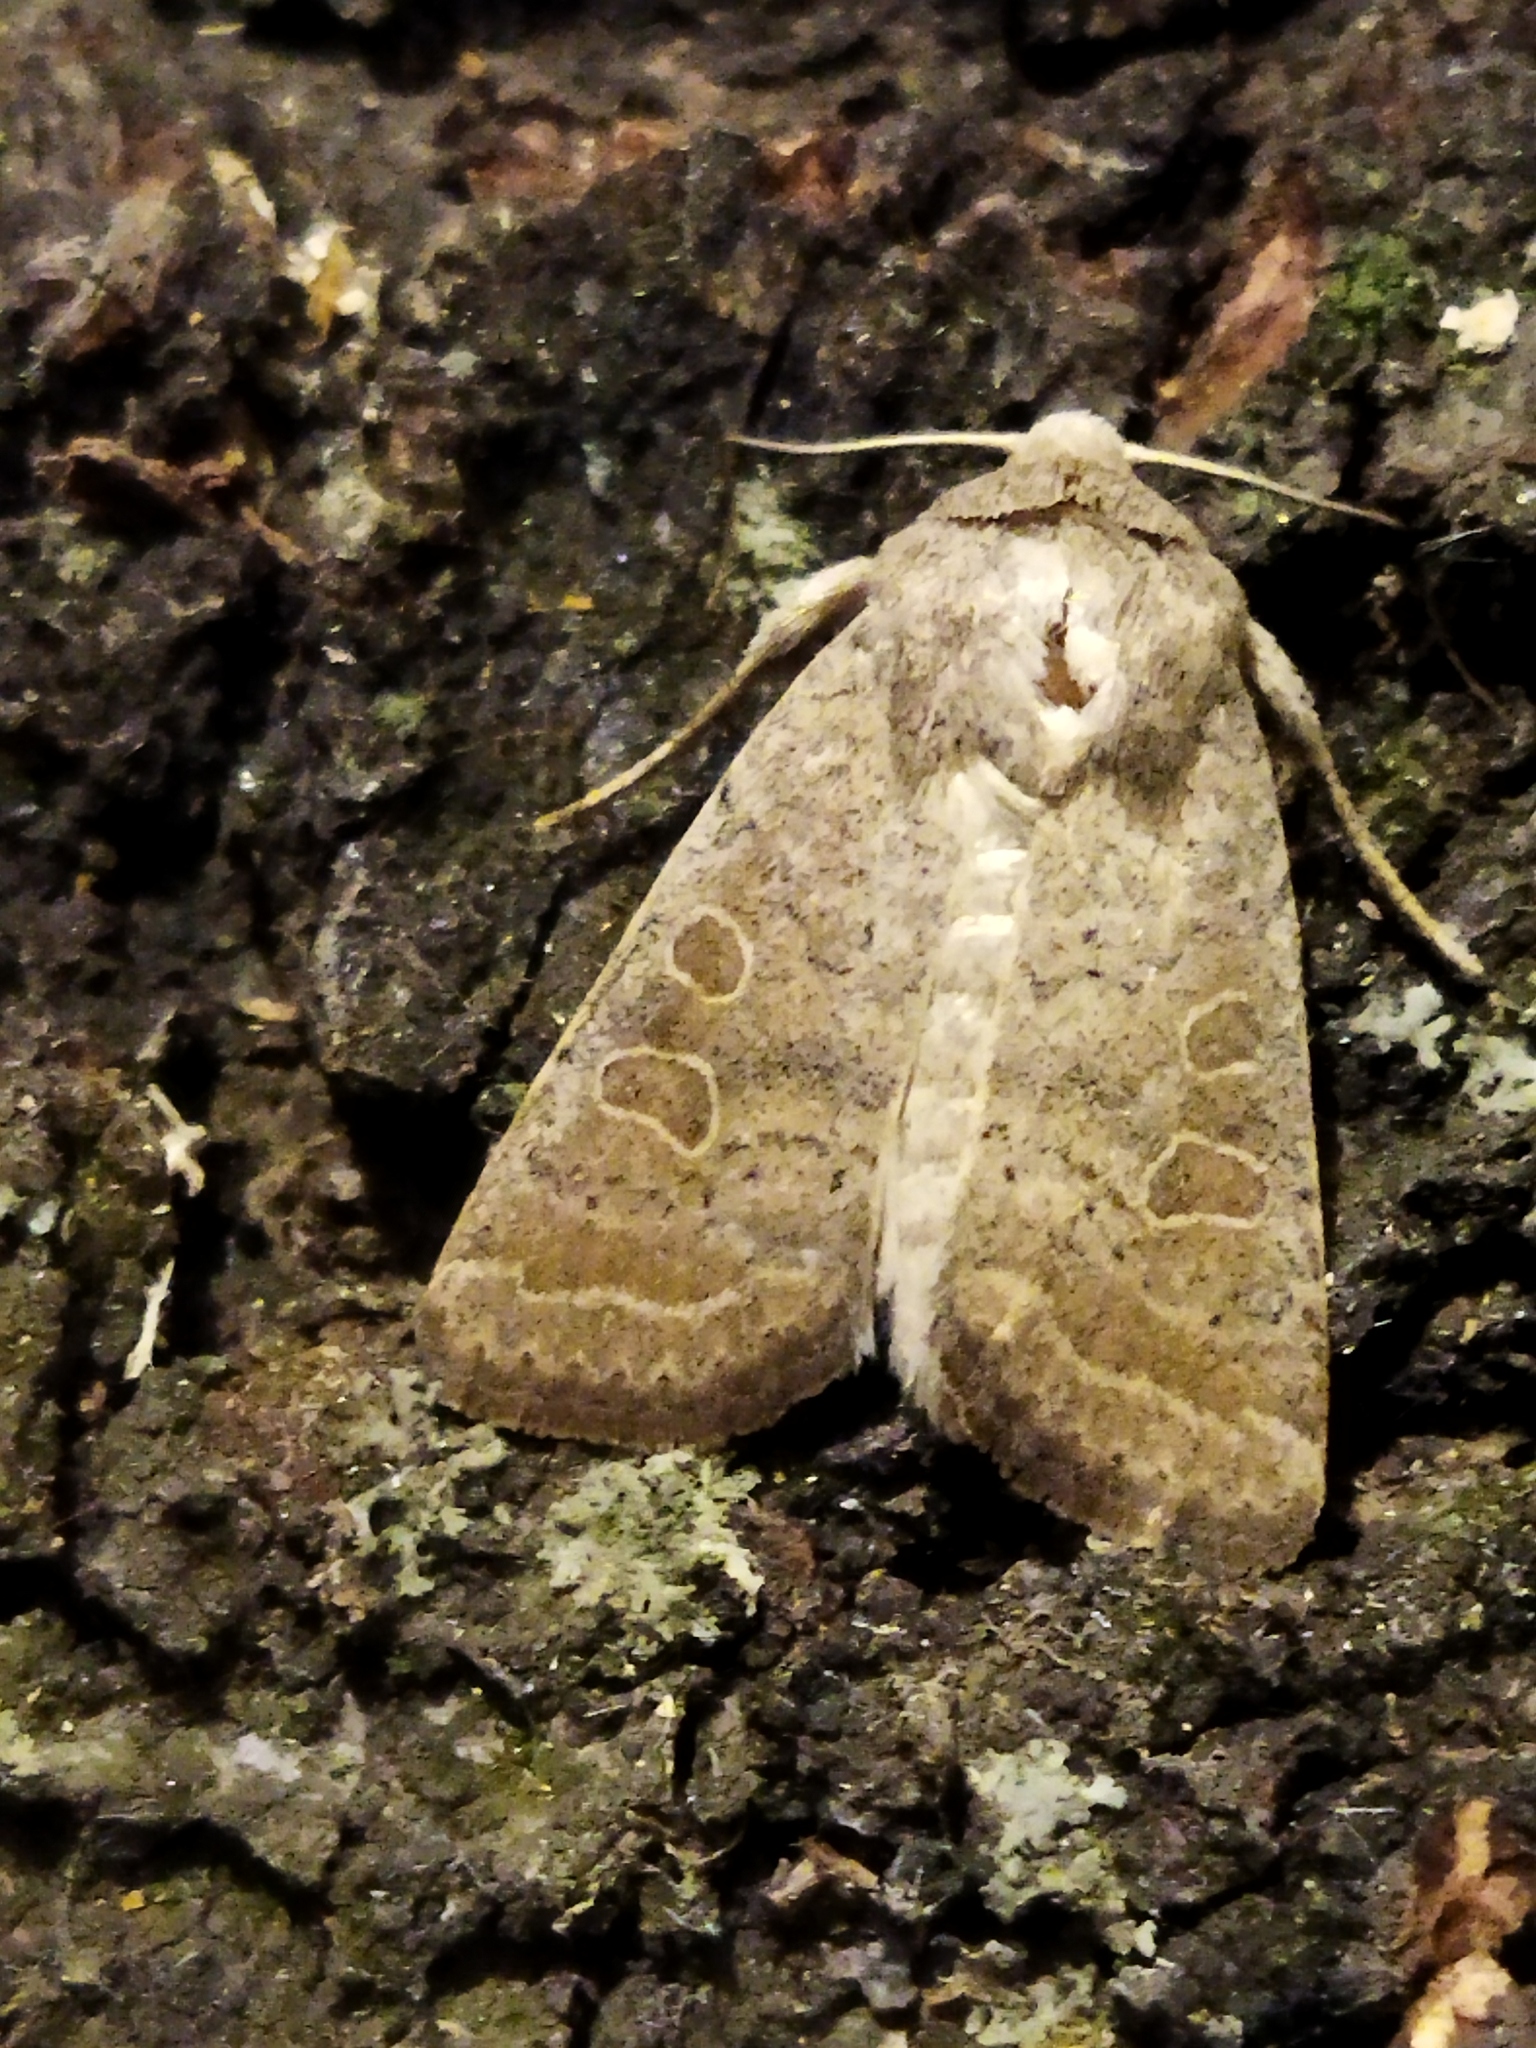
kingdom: Animalia
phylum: Arthropoda
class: Insecta
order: Lepidoptera
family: Noctuidae
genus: Hoplodrina
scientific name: Hoplodrina ambigua
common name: Vine's rustic
